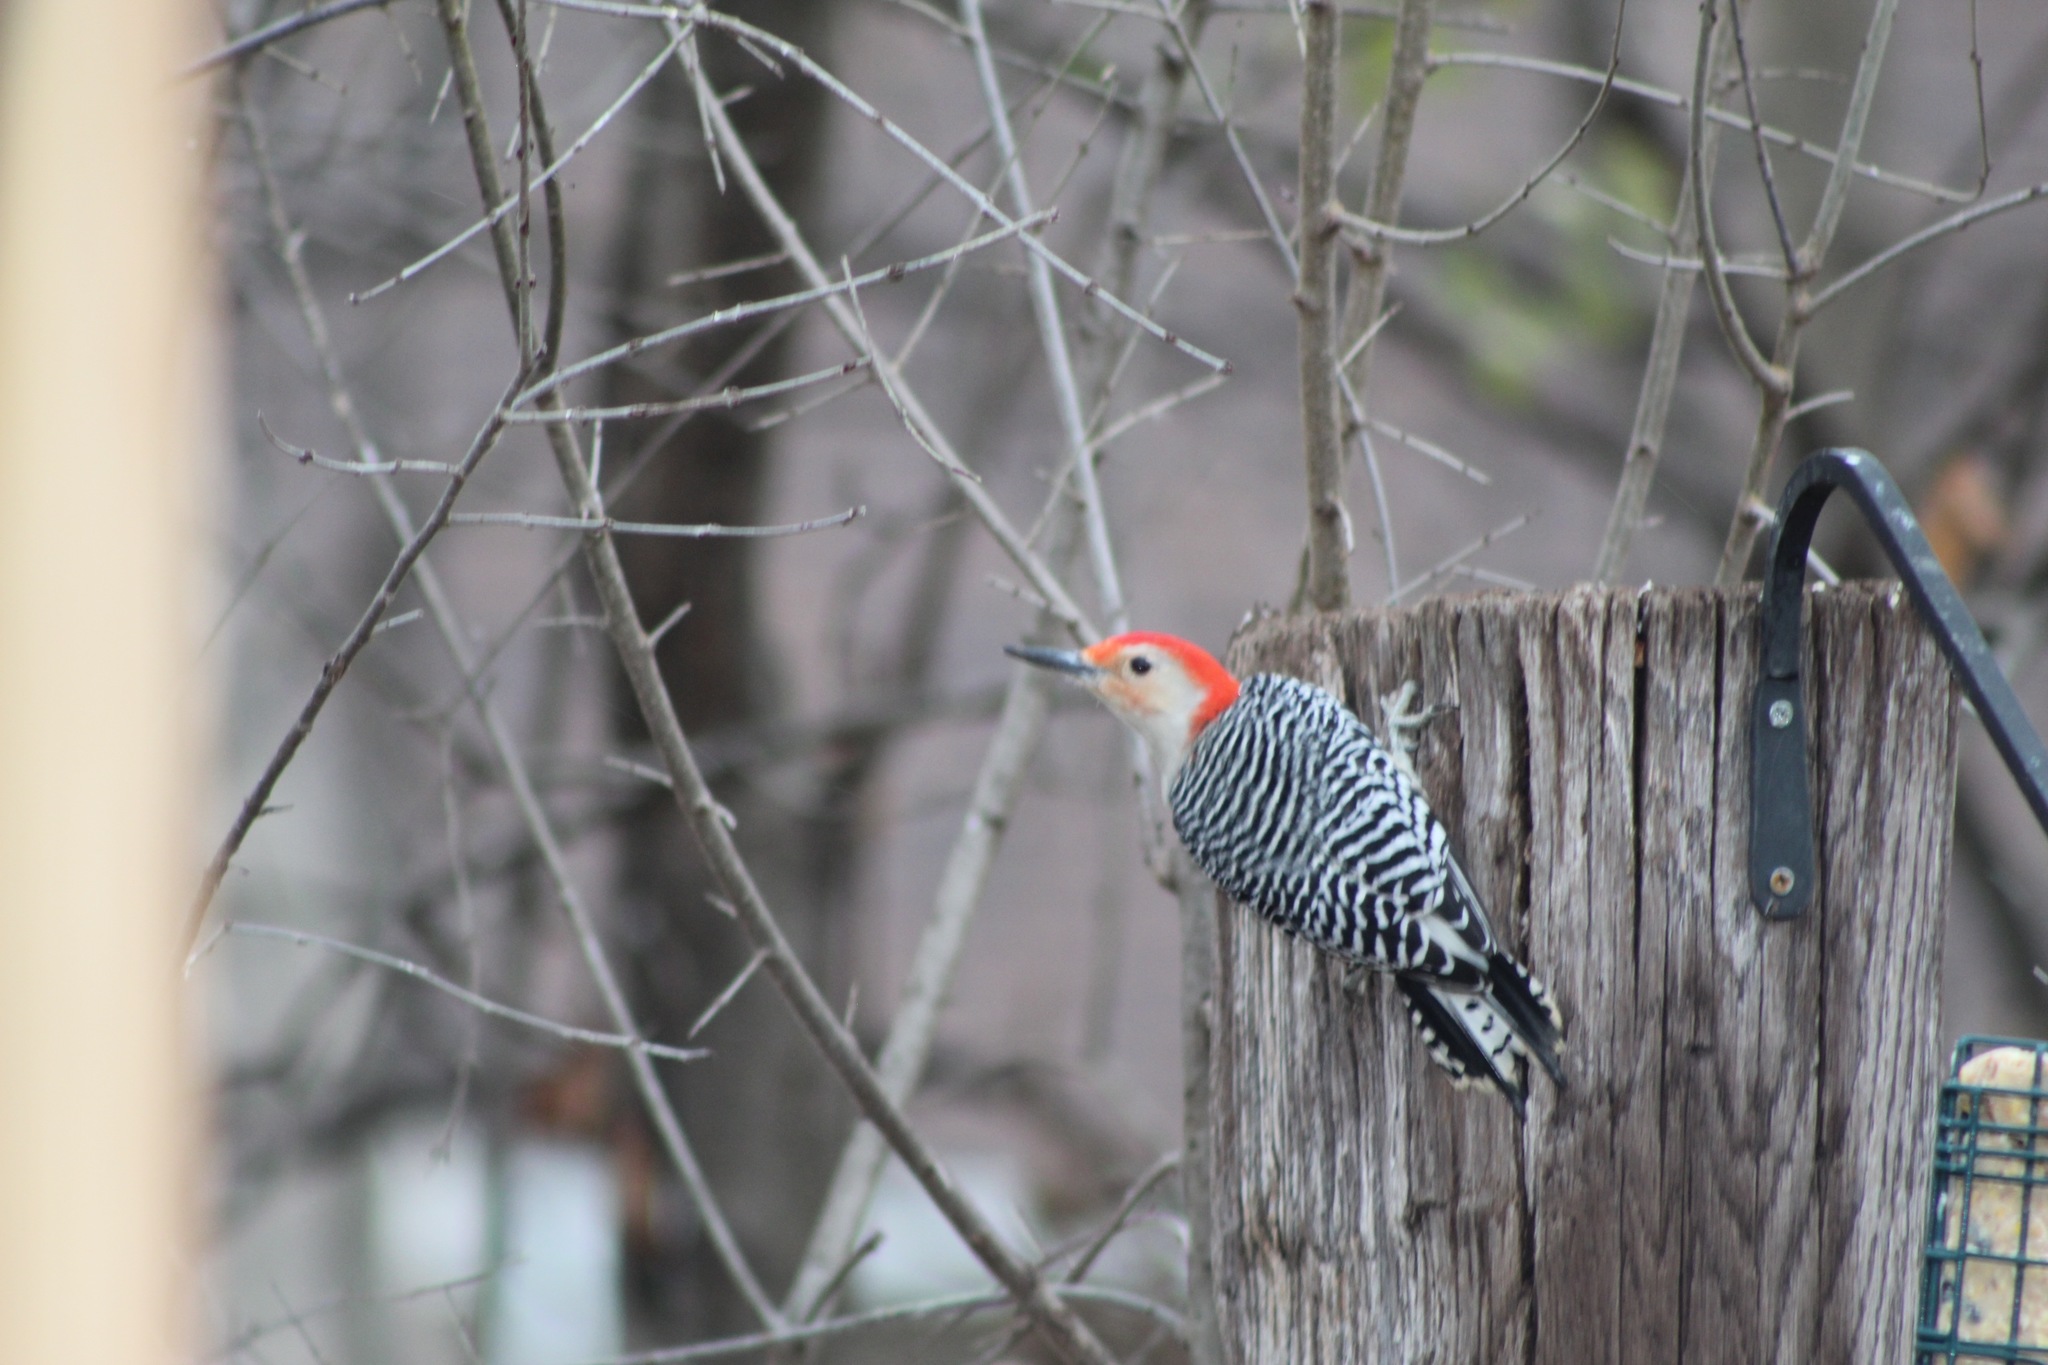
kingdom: Animalia
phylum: Chordata
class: Aves
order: Piciformes
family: Picidae
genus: Melanerpes
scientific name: Melanerpes carolinus
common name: Red-bellied woodpecker
